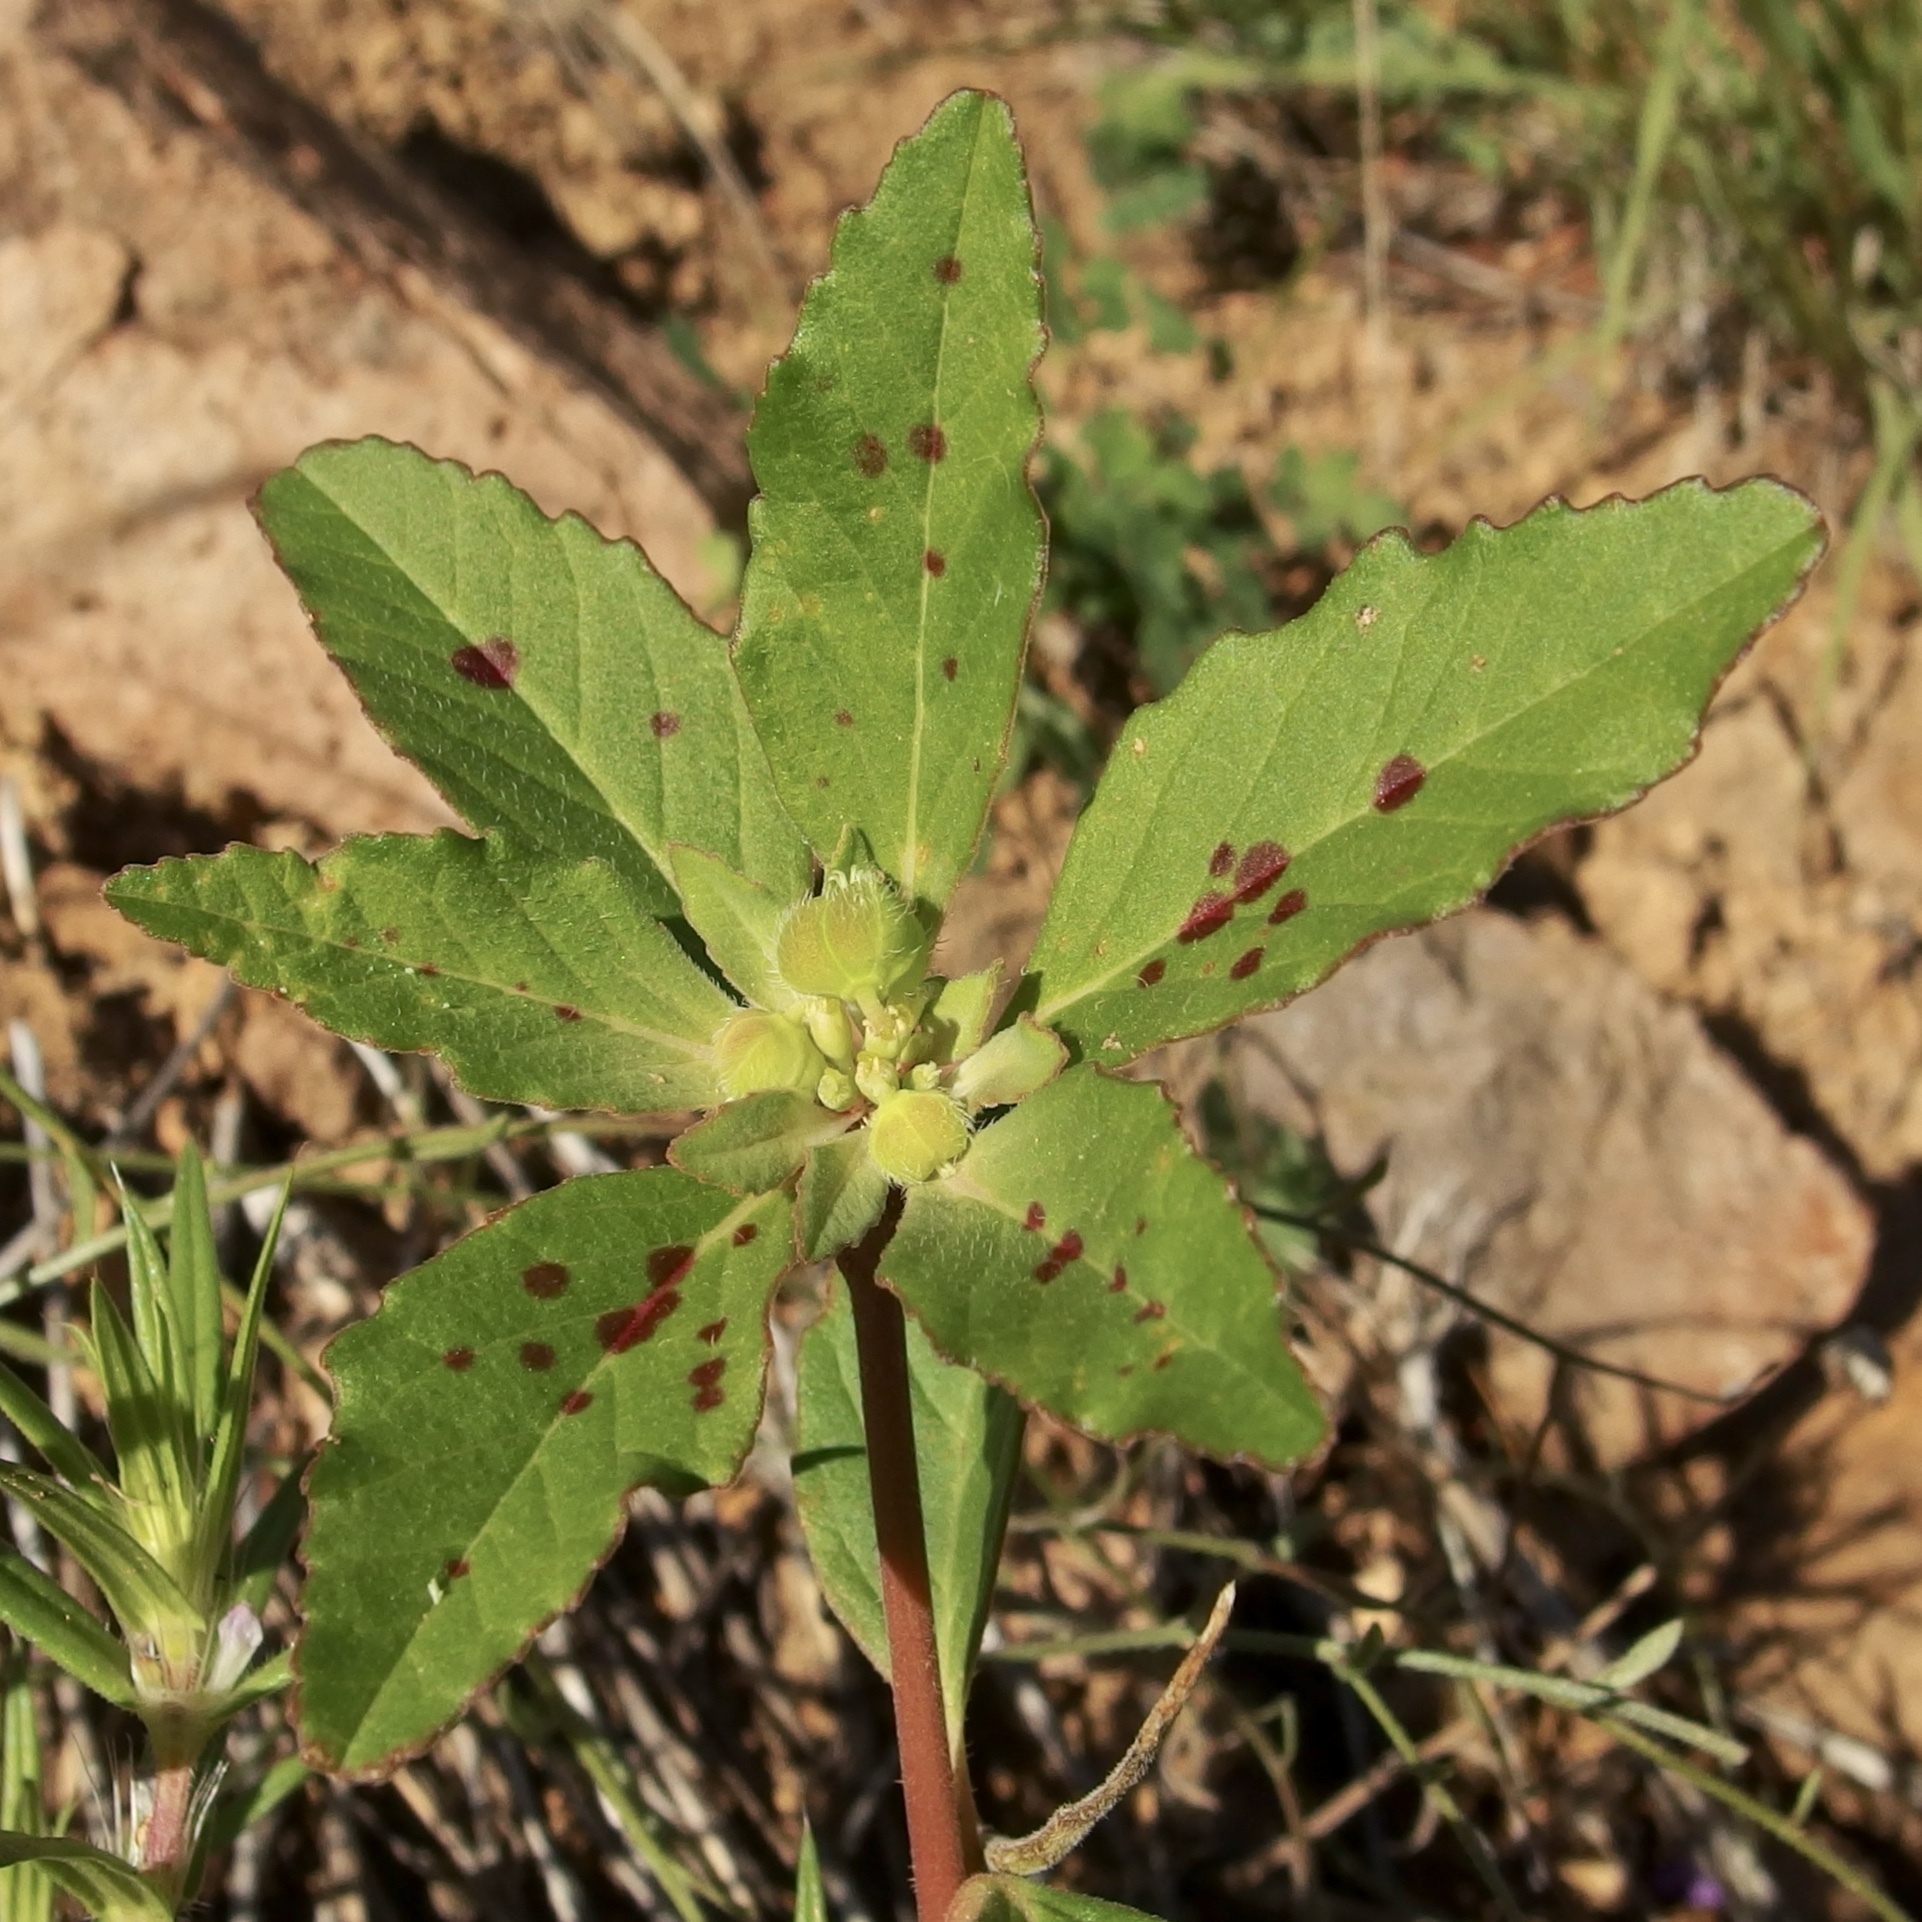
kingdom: Plantae
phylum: Tracheophyta
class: Magnoliopsida
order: Malpighiales
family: Euphorbiaceae
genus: Euphorbia
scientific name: Euphorbia cuphosperma
